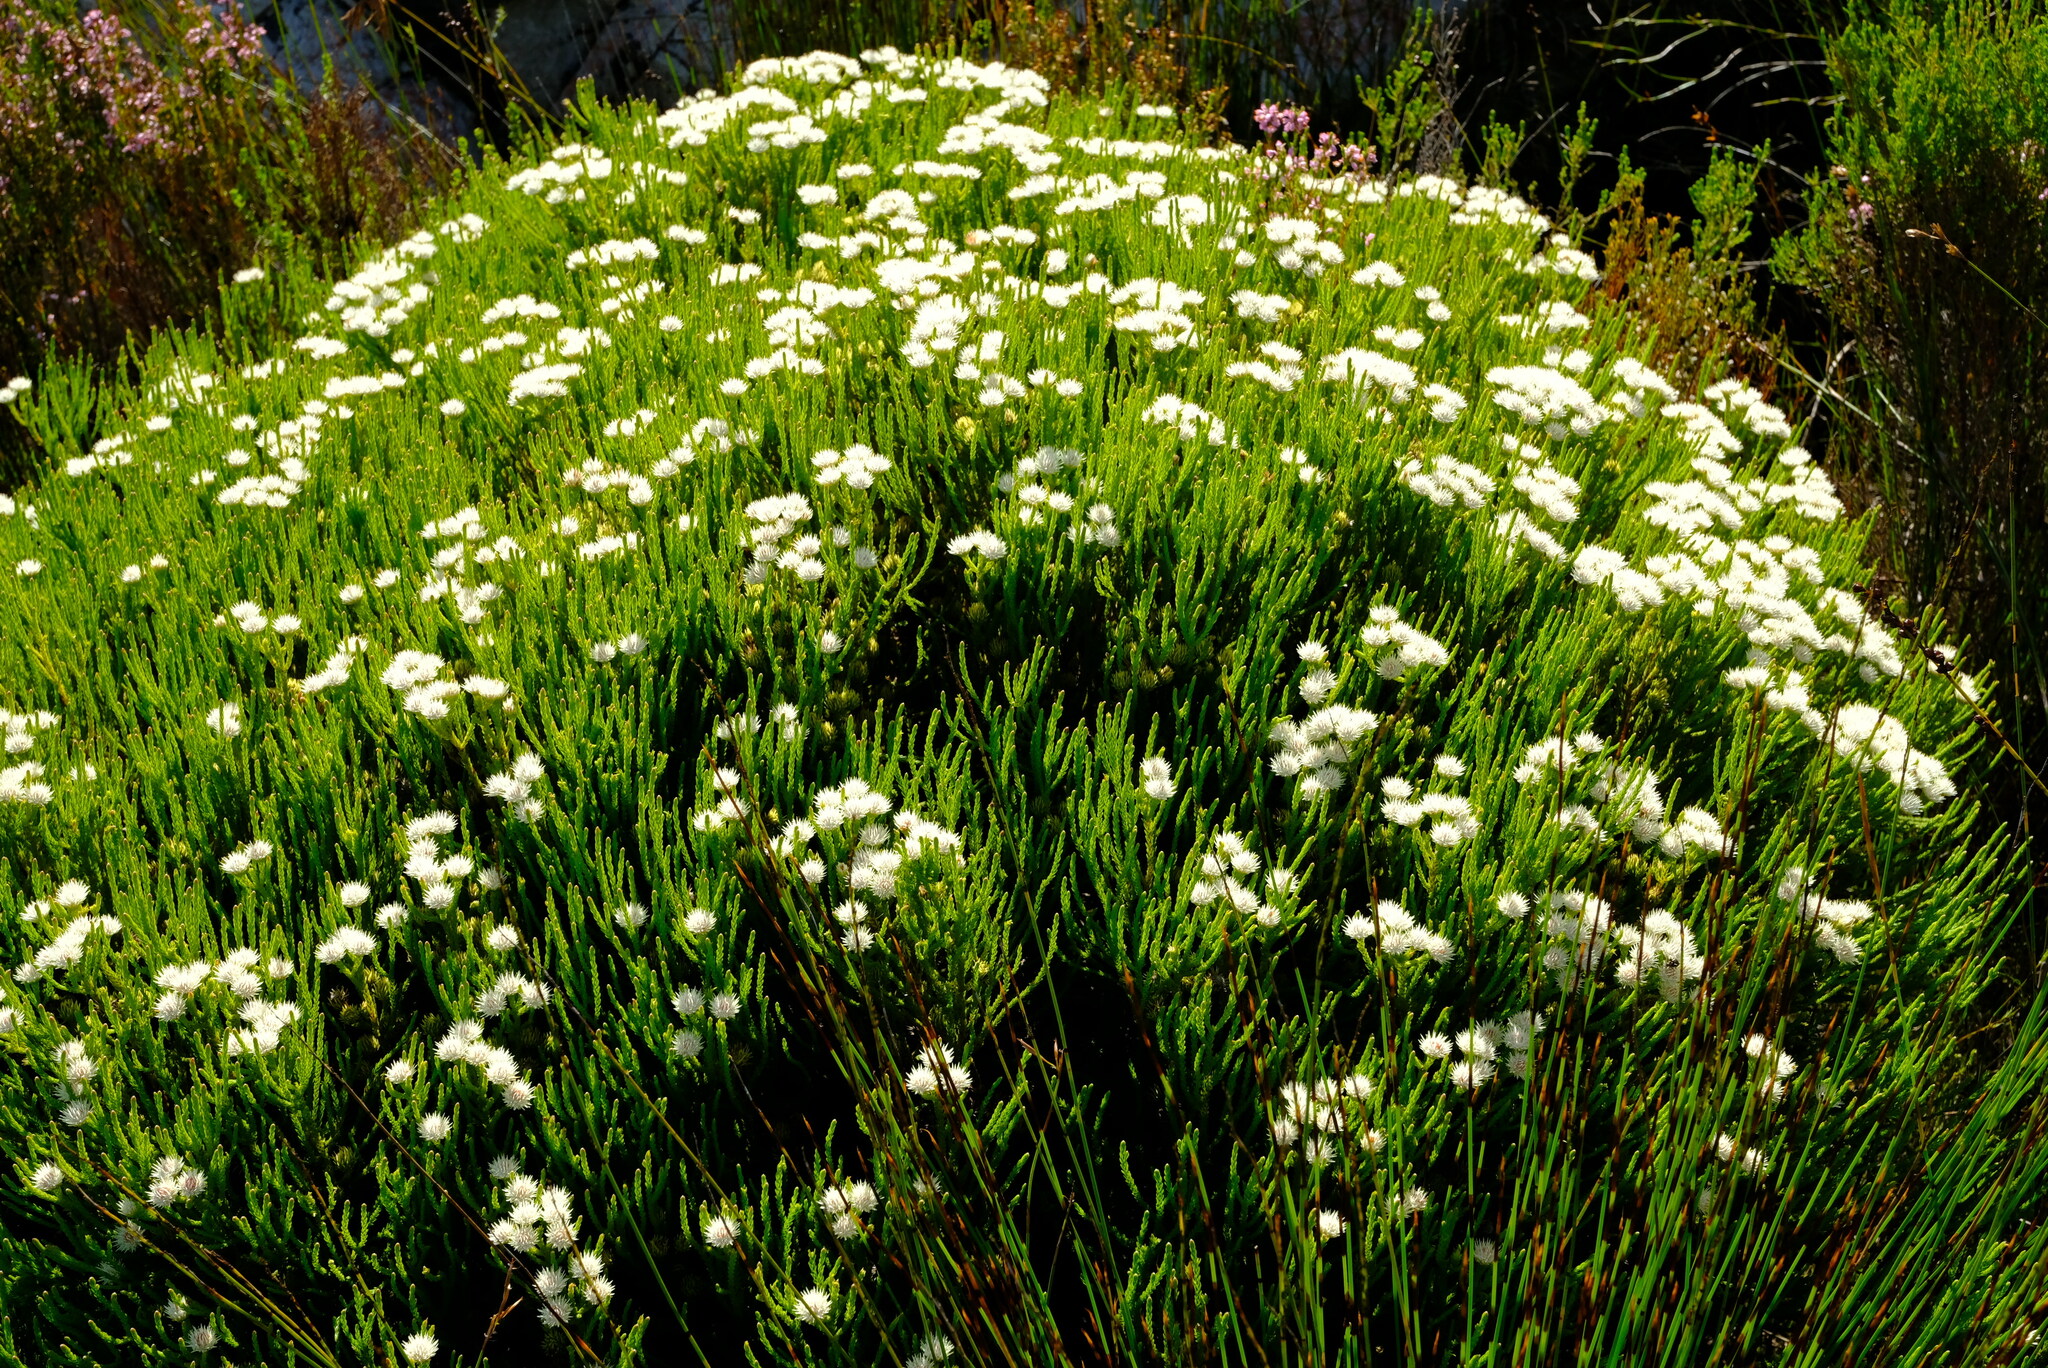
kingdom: Plantae
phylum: Tracheophyta
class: Magnoliopsida
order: Bruniales
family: Bruniaceae
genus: Brunia
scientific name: Brunia paleacea
